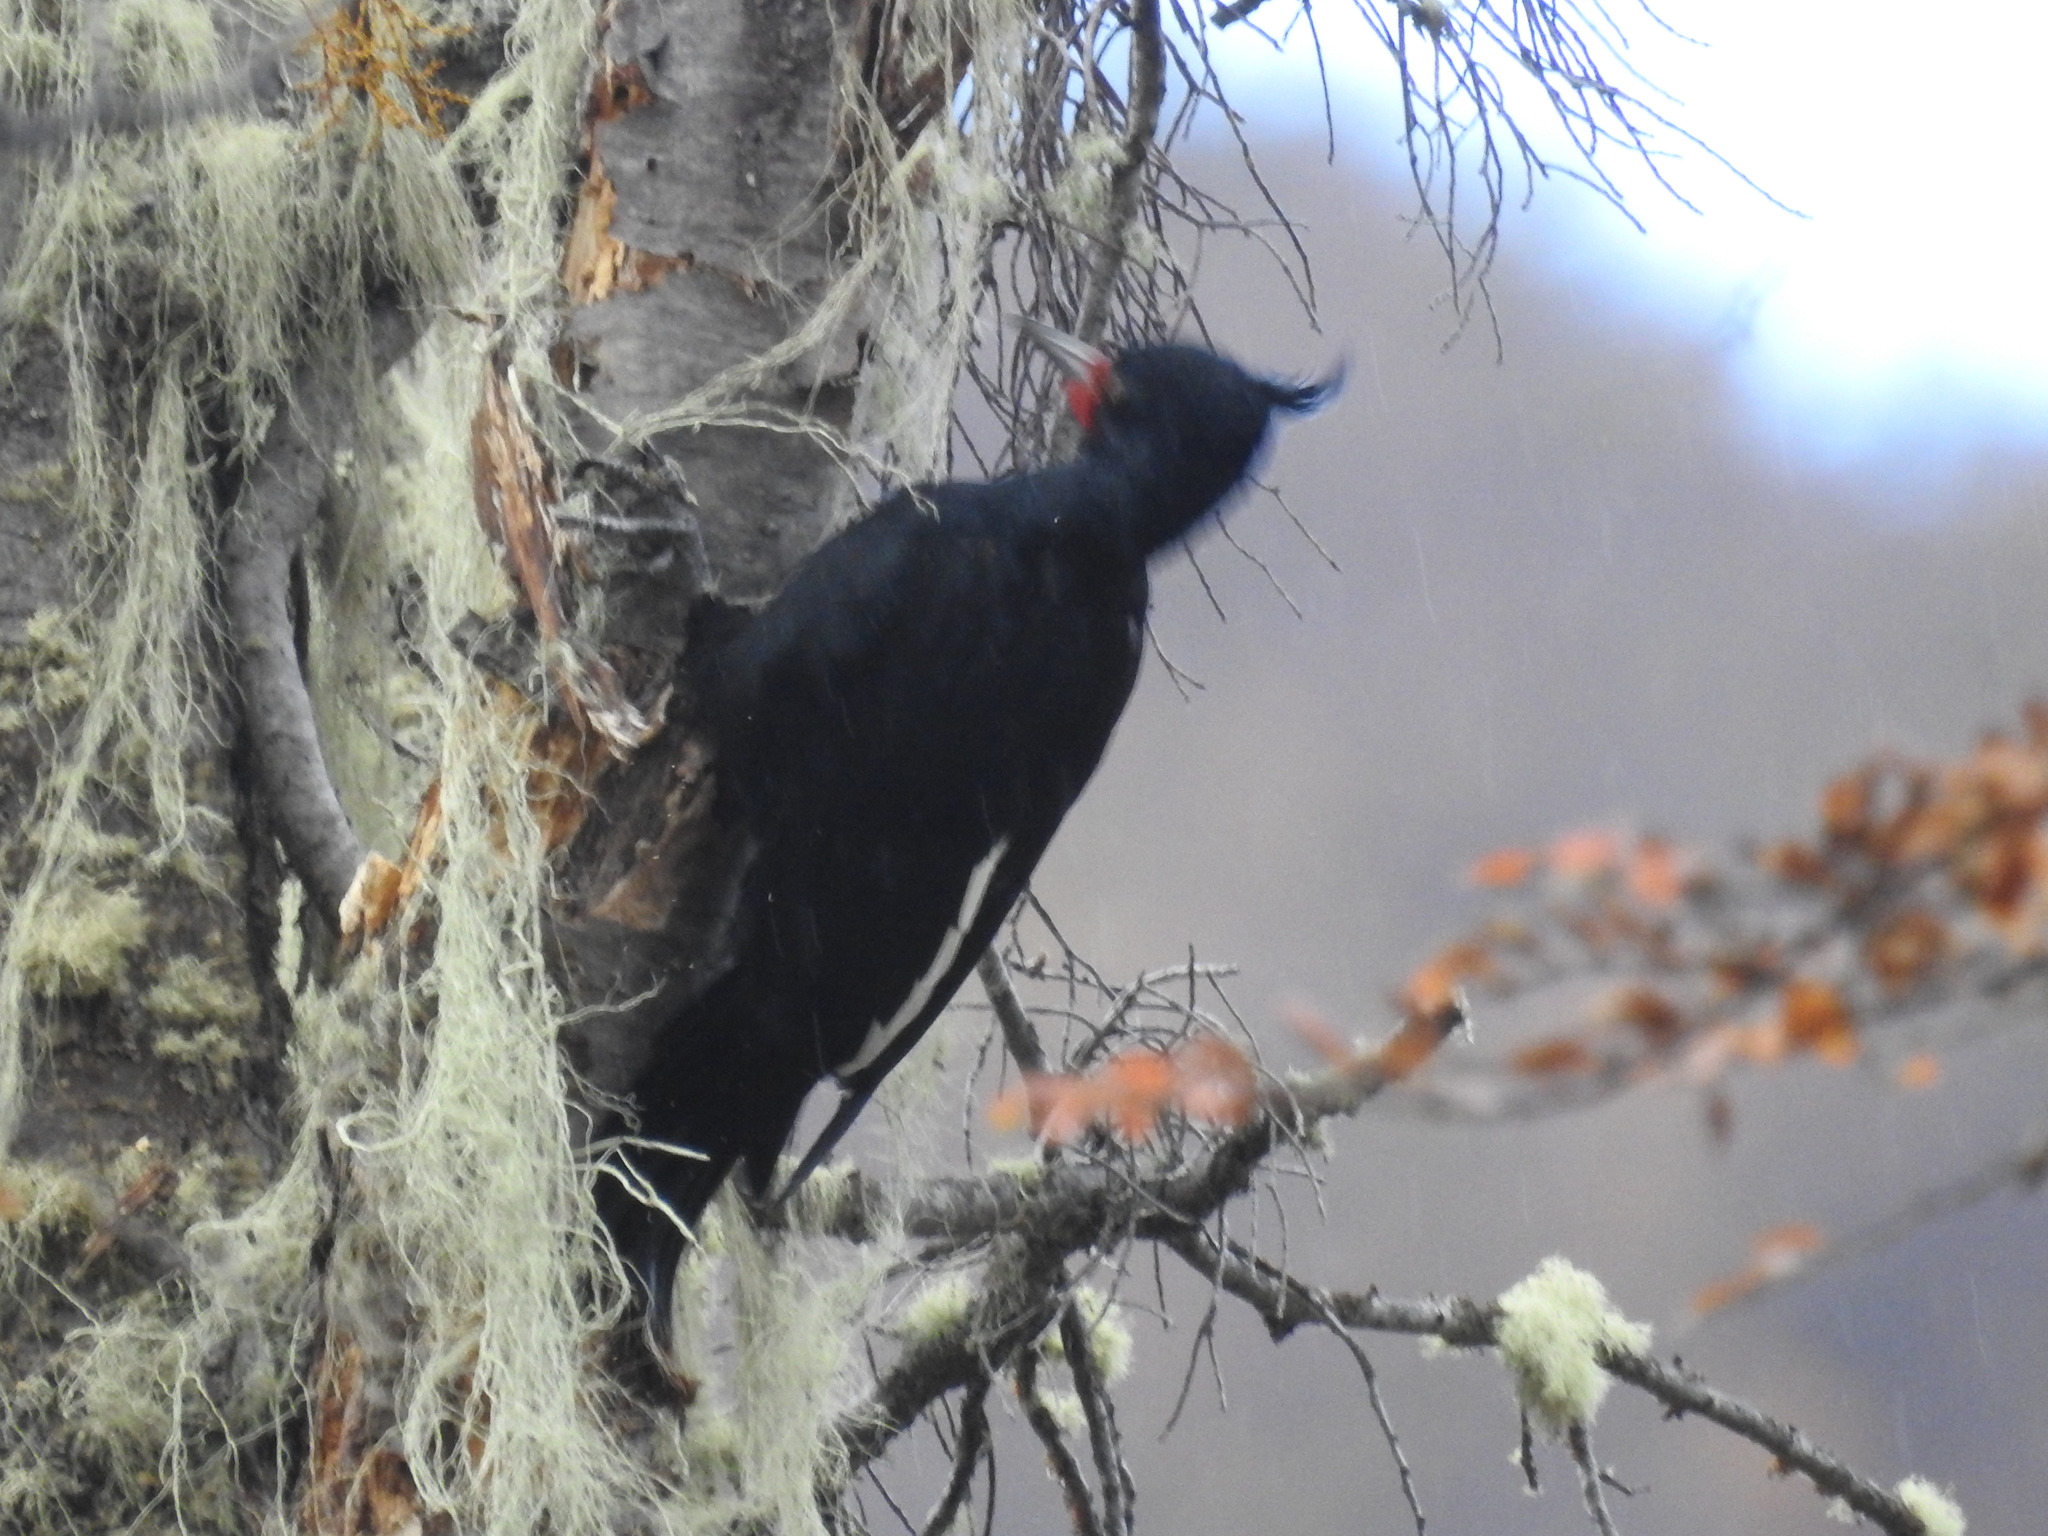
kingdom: Animalia
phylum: Chordata
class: Aves
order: Piciformes
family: Picidae
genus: Campephilus
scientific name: Campephilus magellanicus
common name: Magellanic woodpecker
